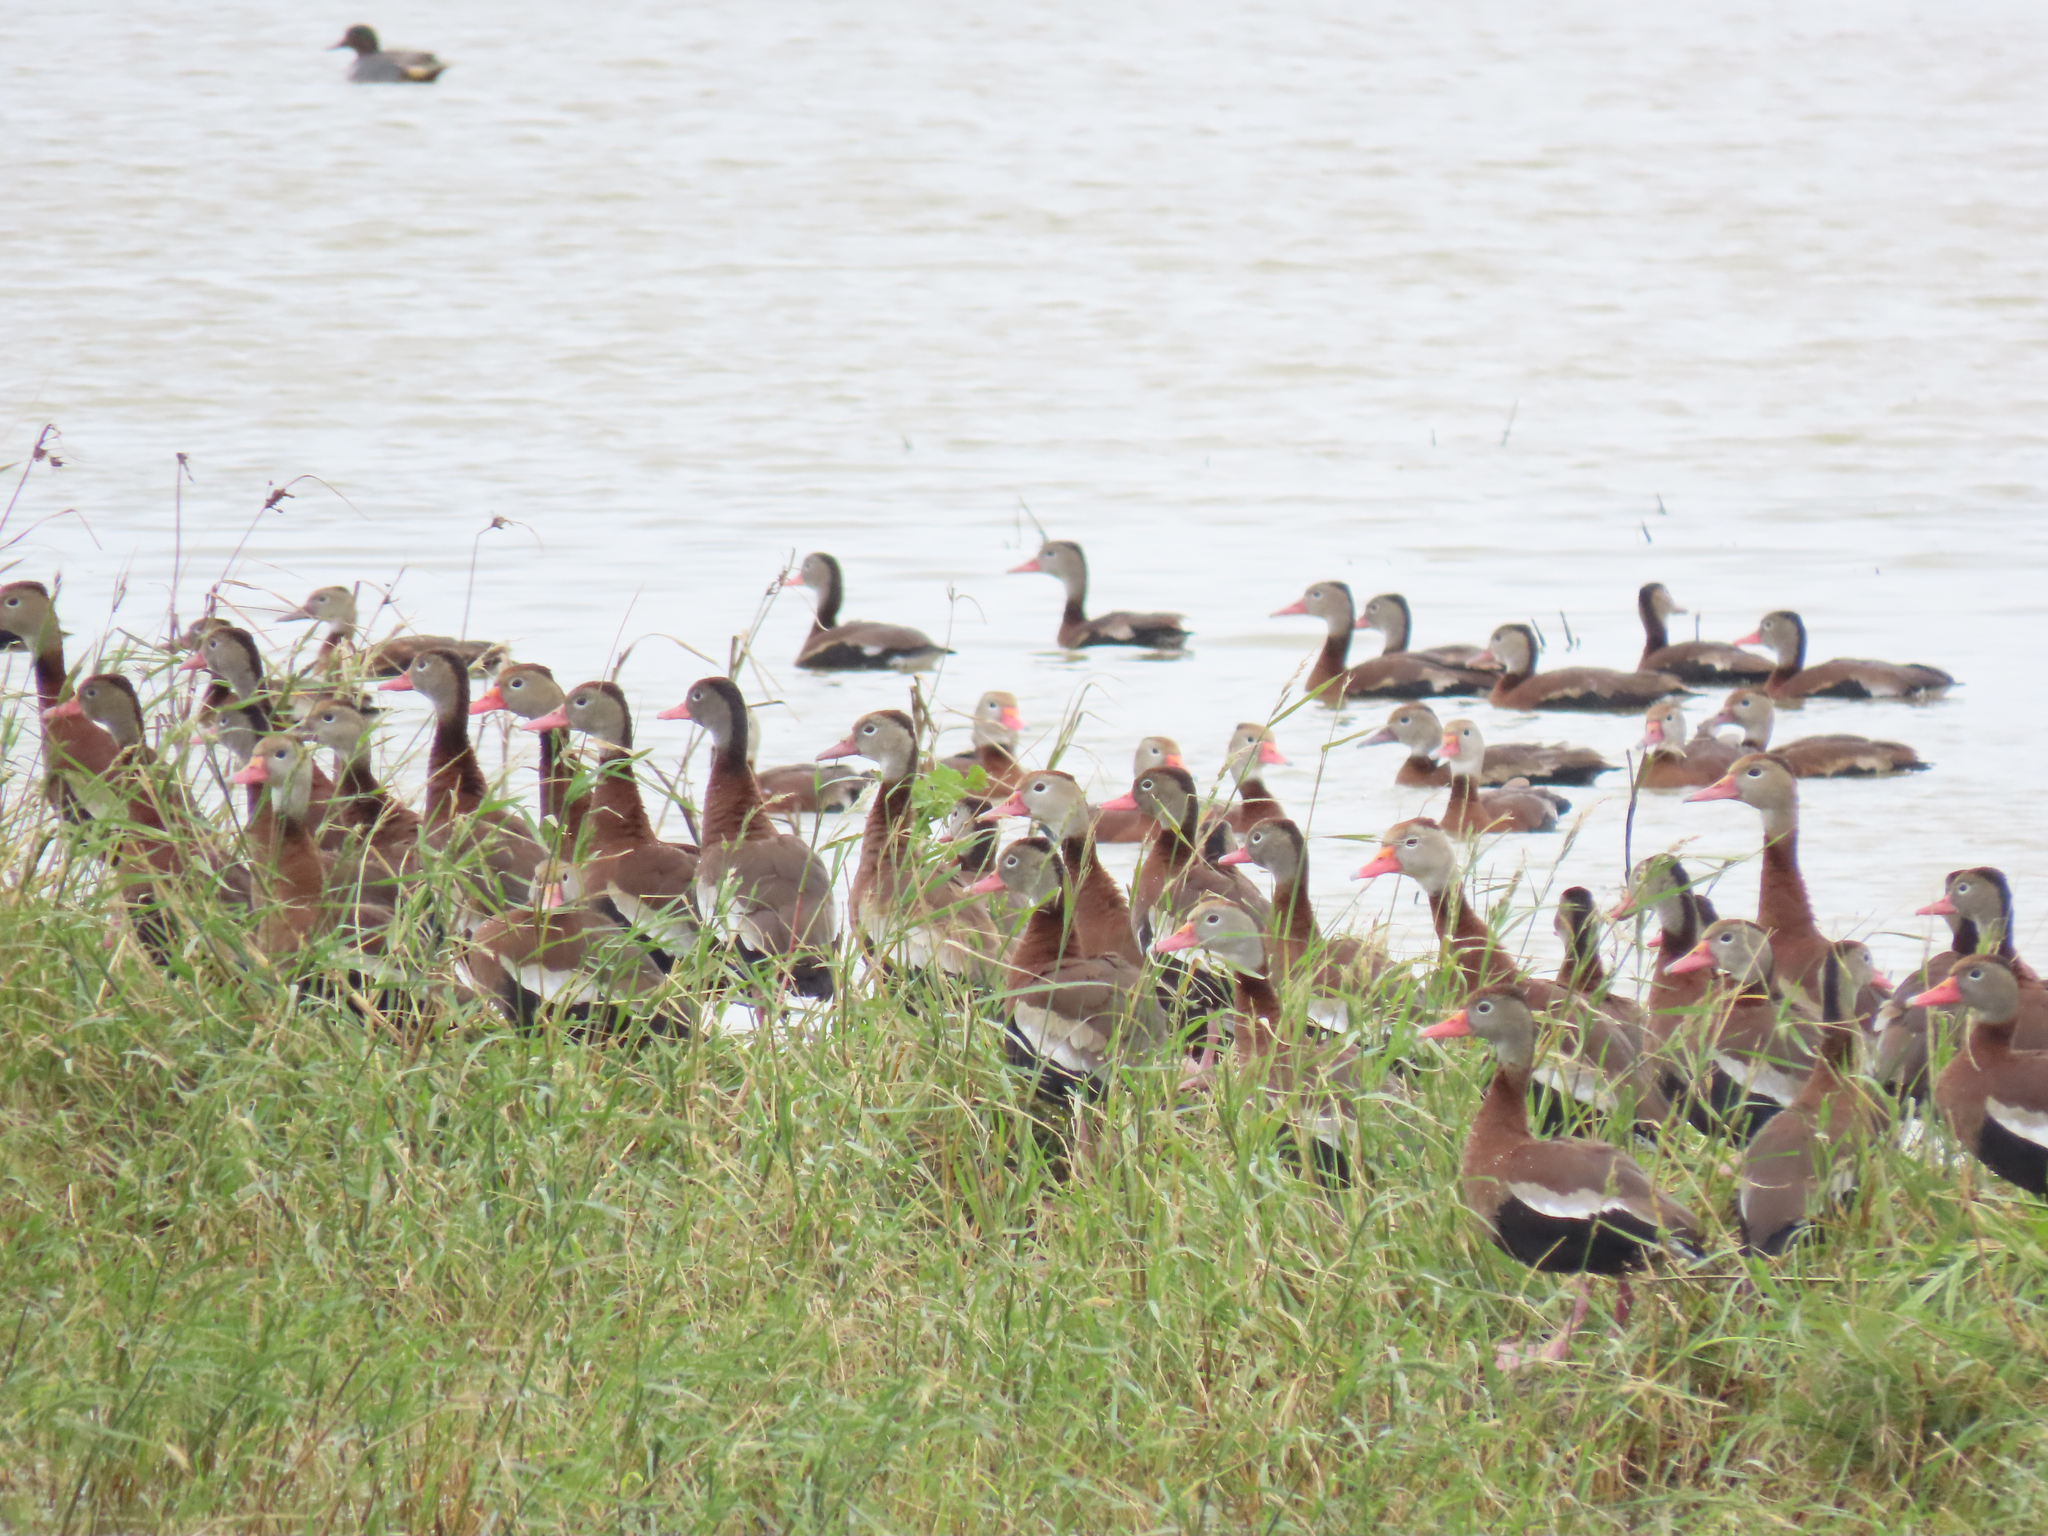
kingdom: Animalia
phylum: Chordata
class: Aves
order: Anseriformes
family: Anatidae
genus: Dendrocygna
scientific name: Dendrocygna autumnalis
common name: Black-bellied whistling duck
